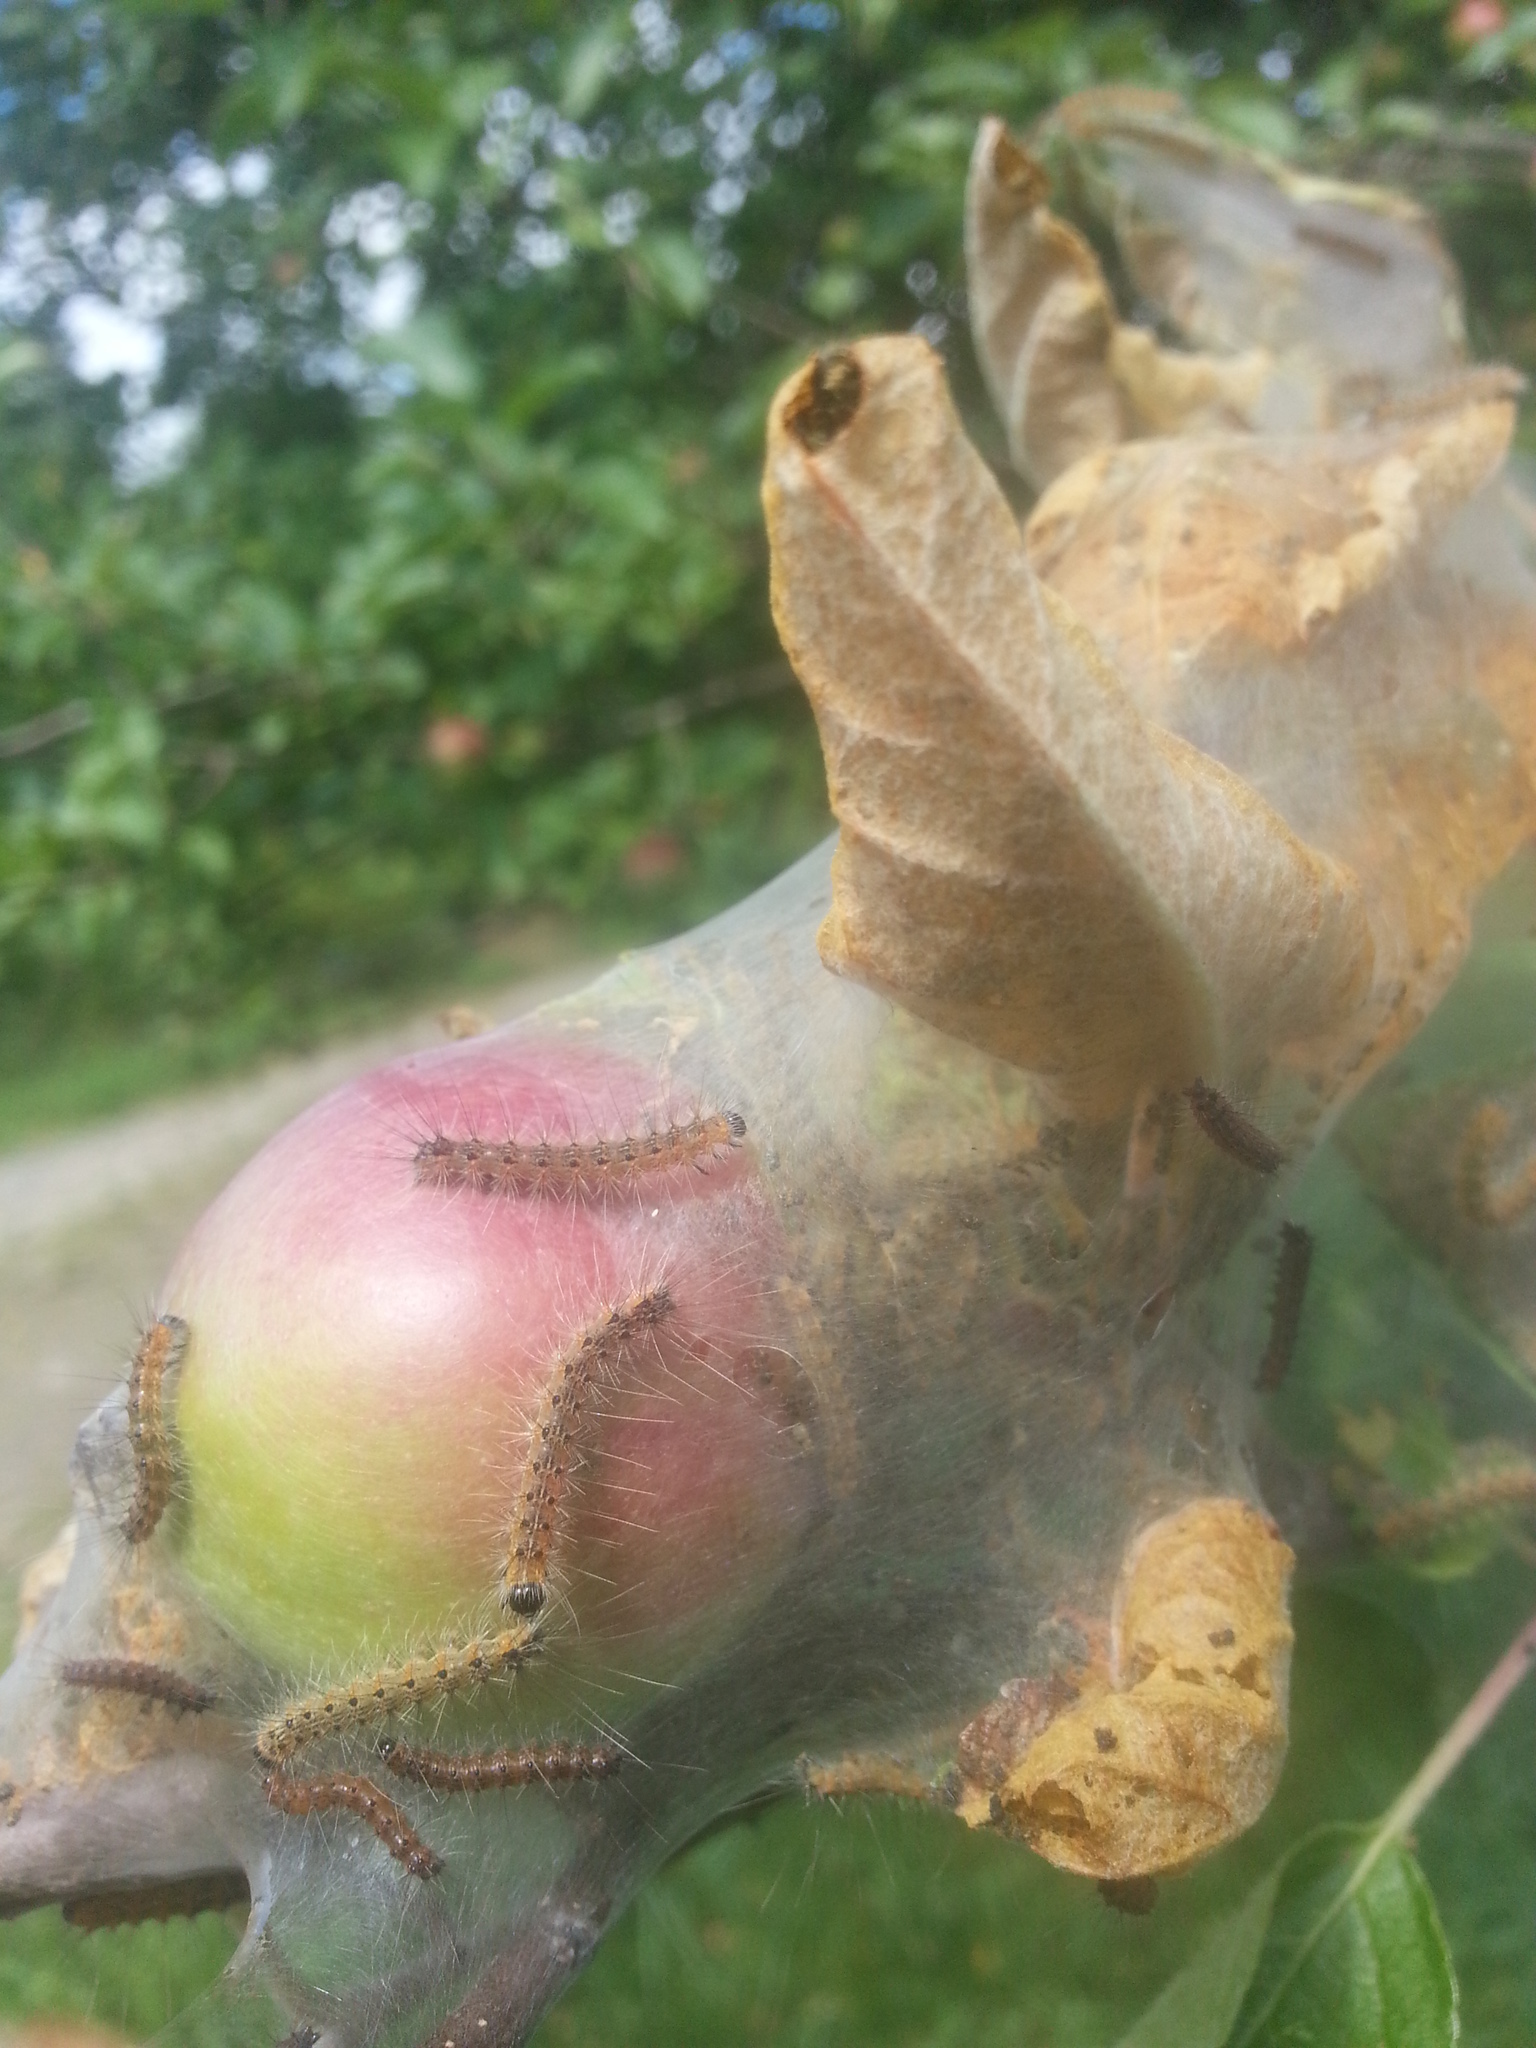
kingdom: Animalia
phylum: Arthropoda
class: Insecta
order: Lepidoptera
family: Erebidae
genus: Hyphantria
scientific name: Hyphantria cunea
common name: American white moth
